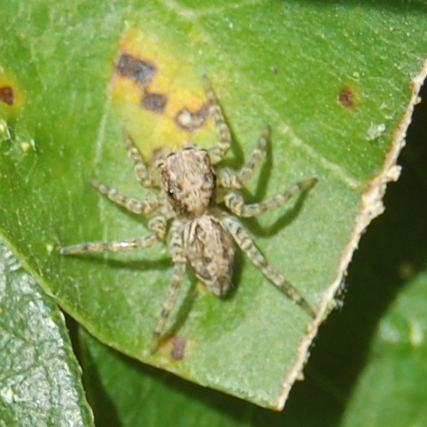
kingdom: Animalia
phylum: Arthropoda
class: Arachnida
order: Araneae
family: Salticidae
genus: Saitis
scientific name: Saitis variegatus
